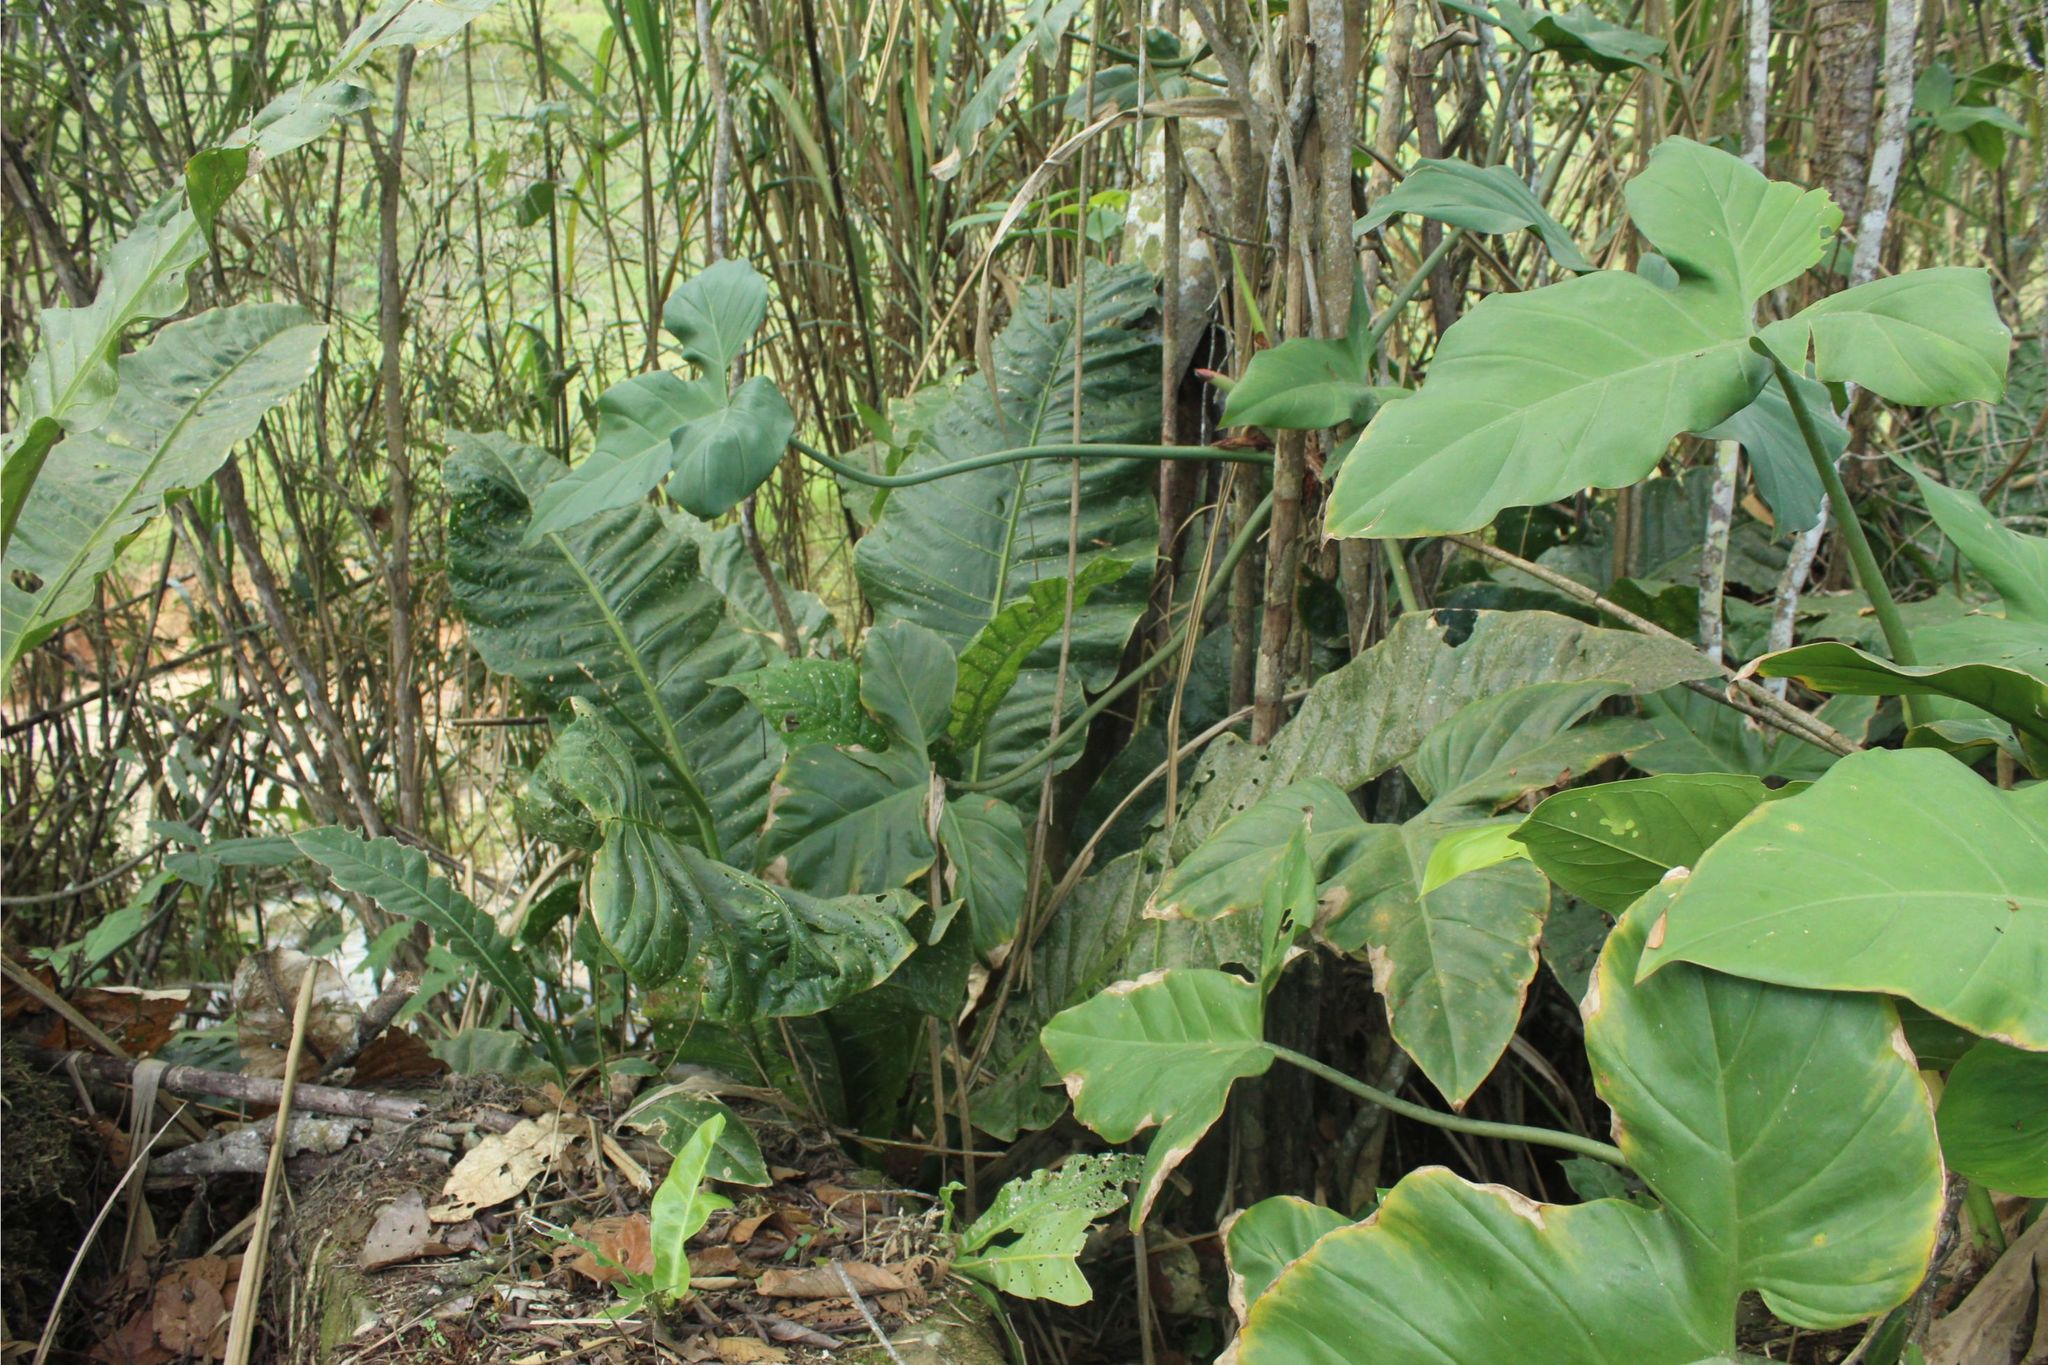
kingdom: Plantae
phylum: Tracheophyta
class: Liliopsida
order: Alismatales
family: Araceae
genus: Anthurium
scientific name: Anthurium
